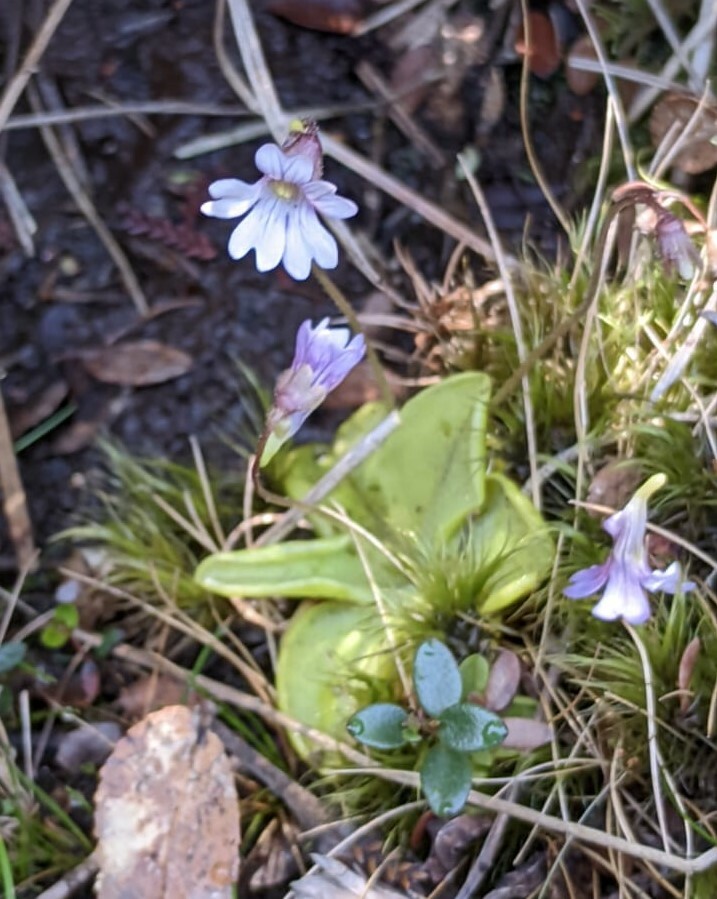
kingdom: Plantae
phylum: Tracheophyta
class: Magnoliopsida
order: Lamiales
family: Lentibulariaceae
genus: Pinguicula
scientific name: Pinguicula australandina
